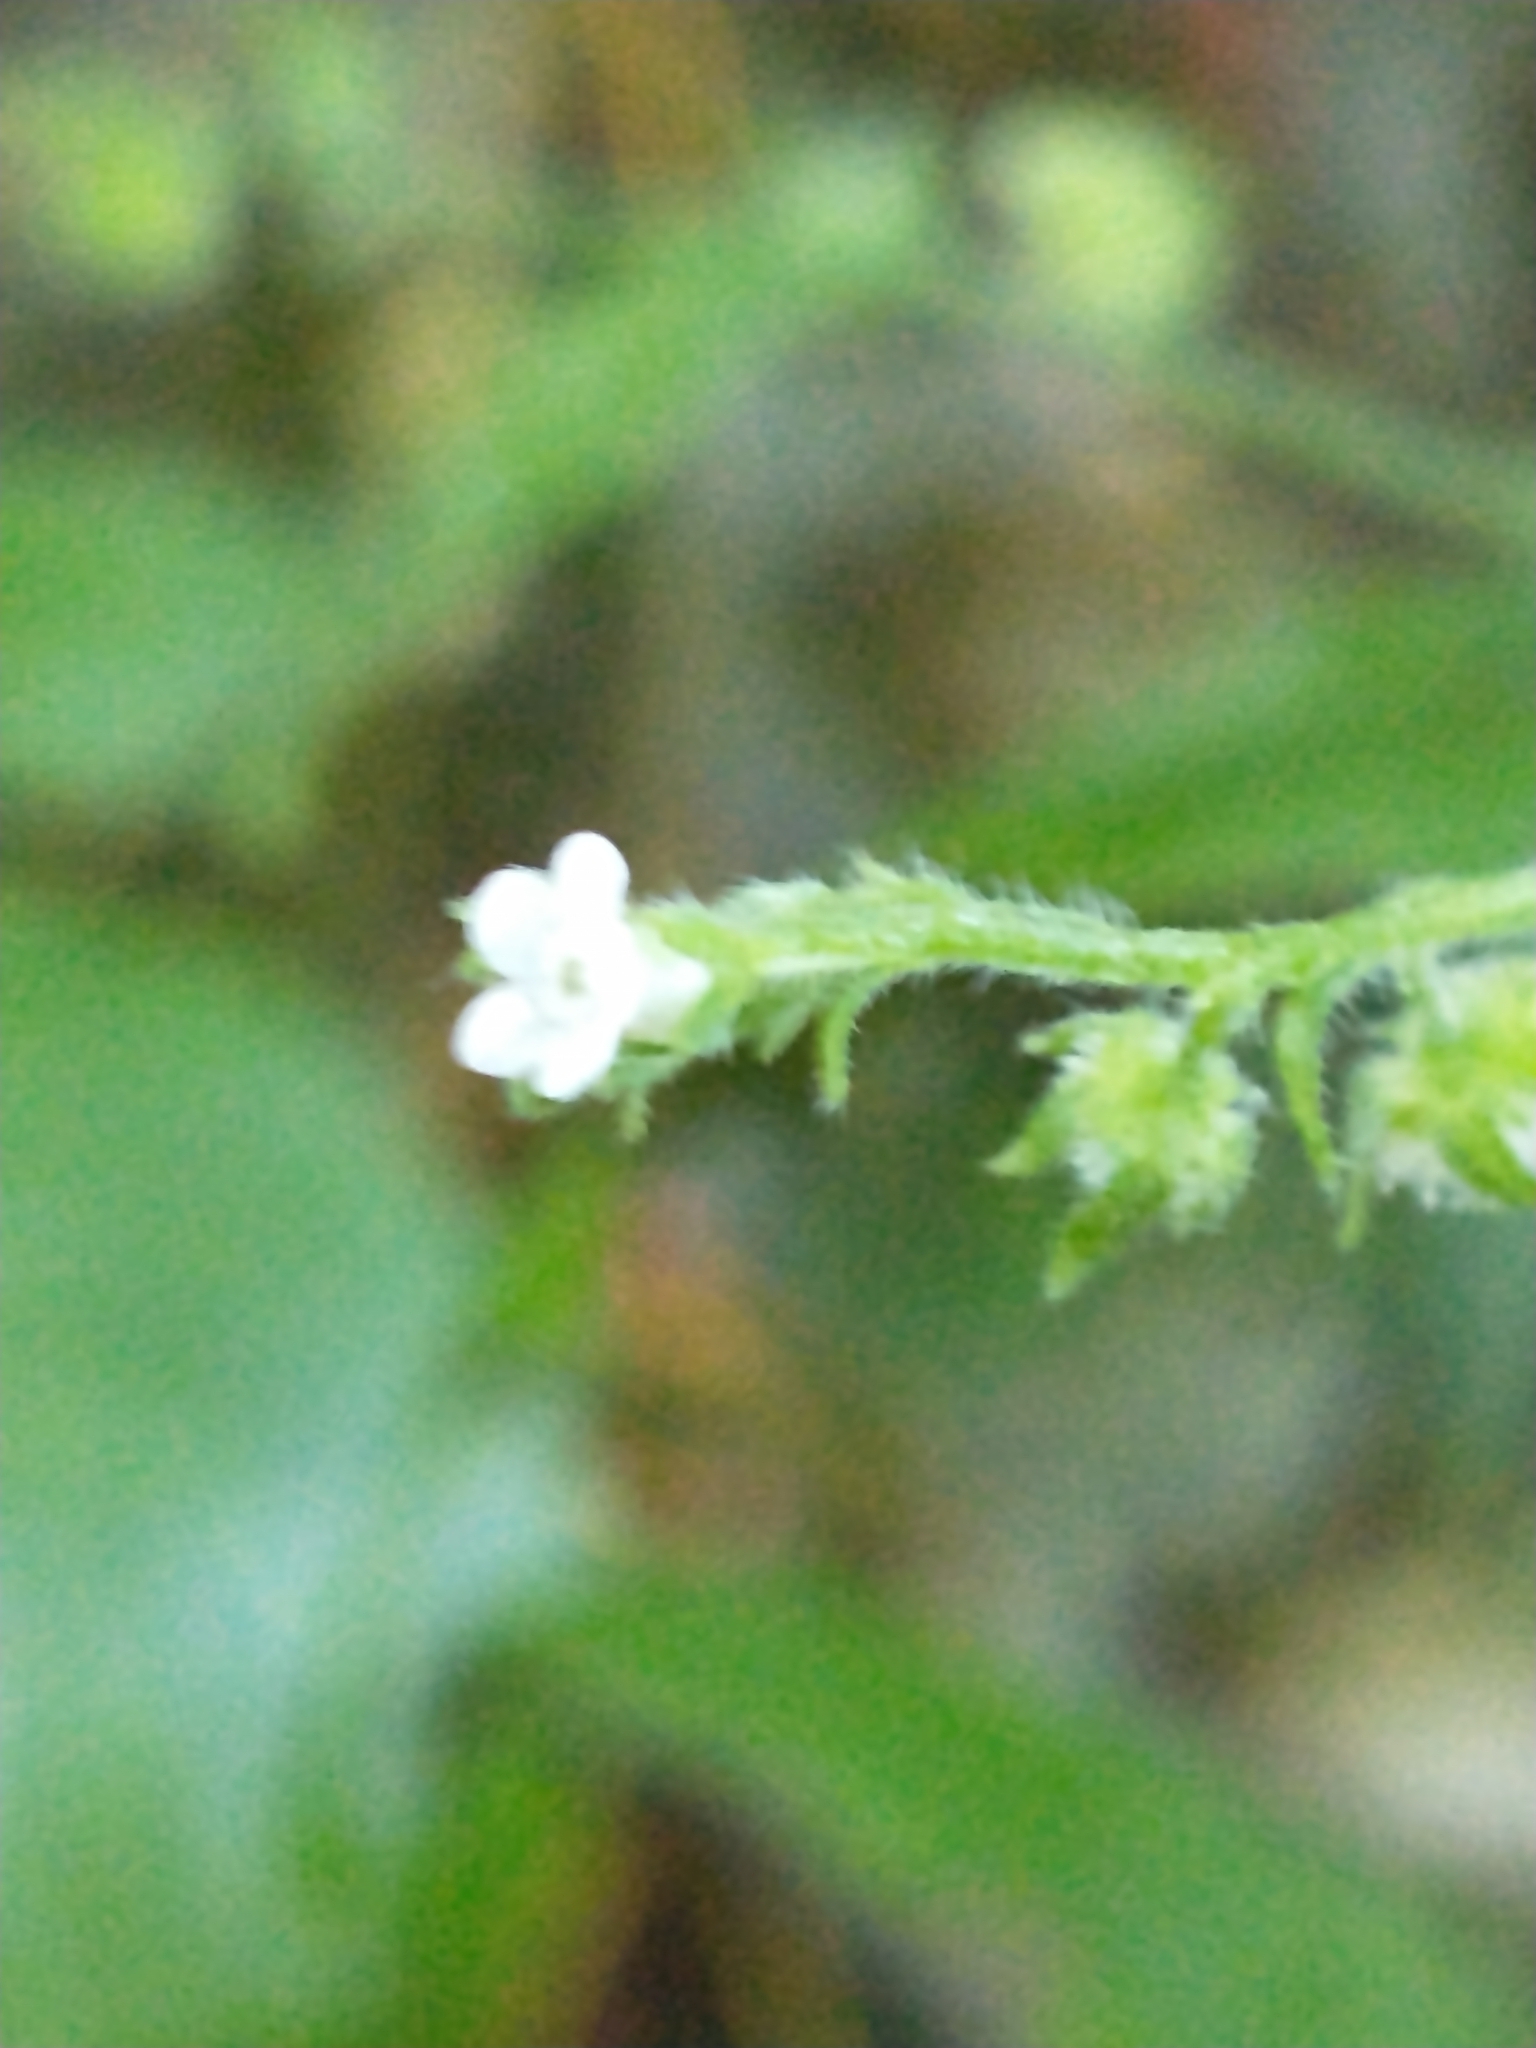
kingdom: Plantae
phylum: Tracheophyta
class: Magnoliopsida
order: Boraginales
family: Boraginaceae
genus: Hackelia
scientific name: Hackelia virginiana
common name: Beggar's-lice
